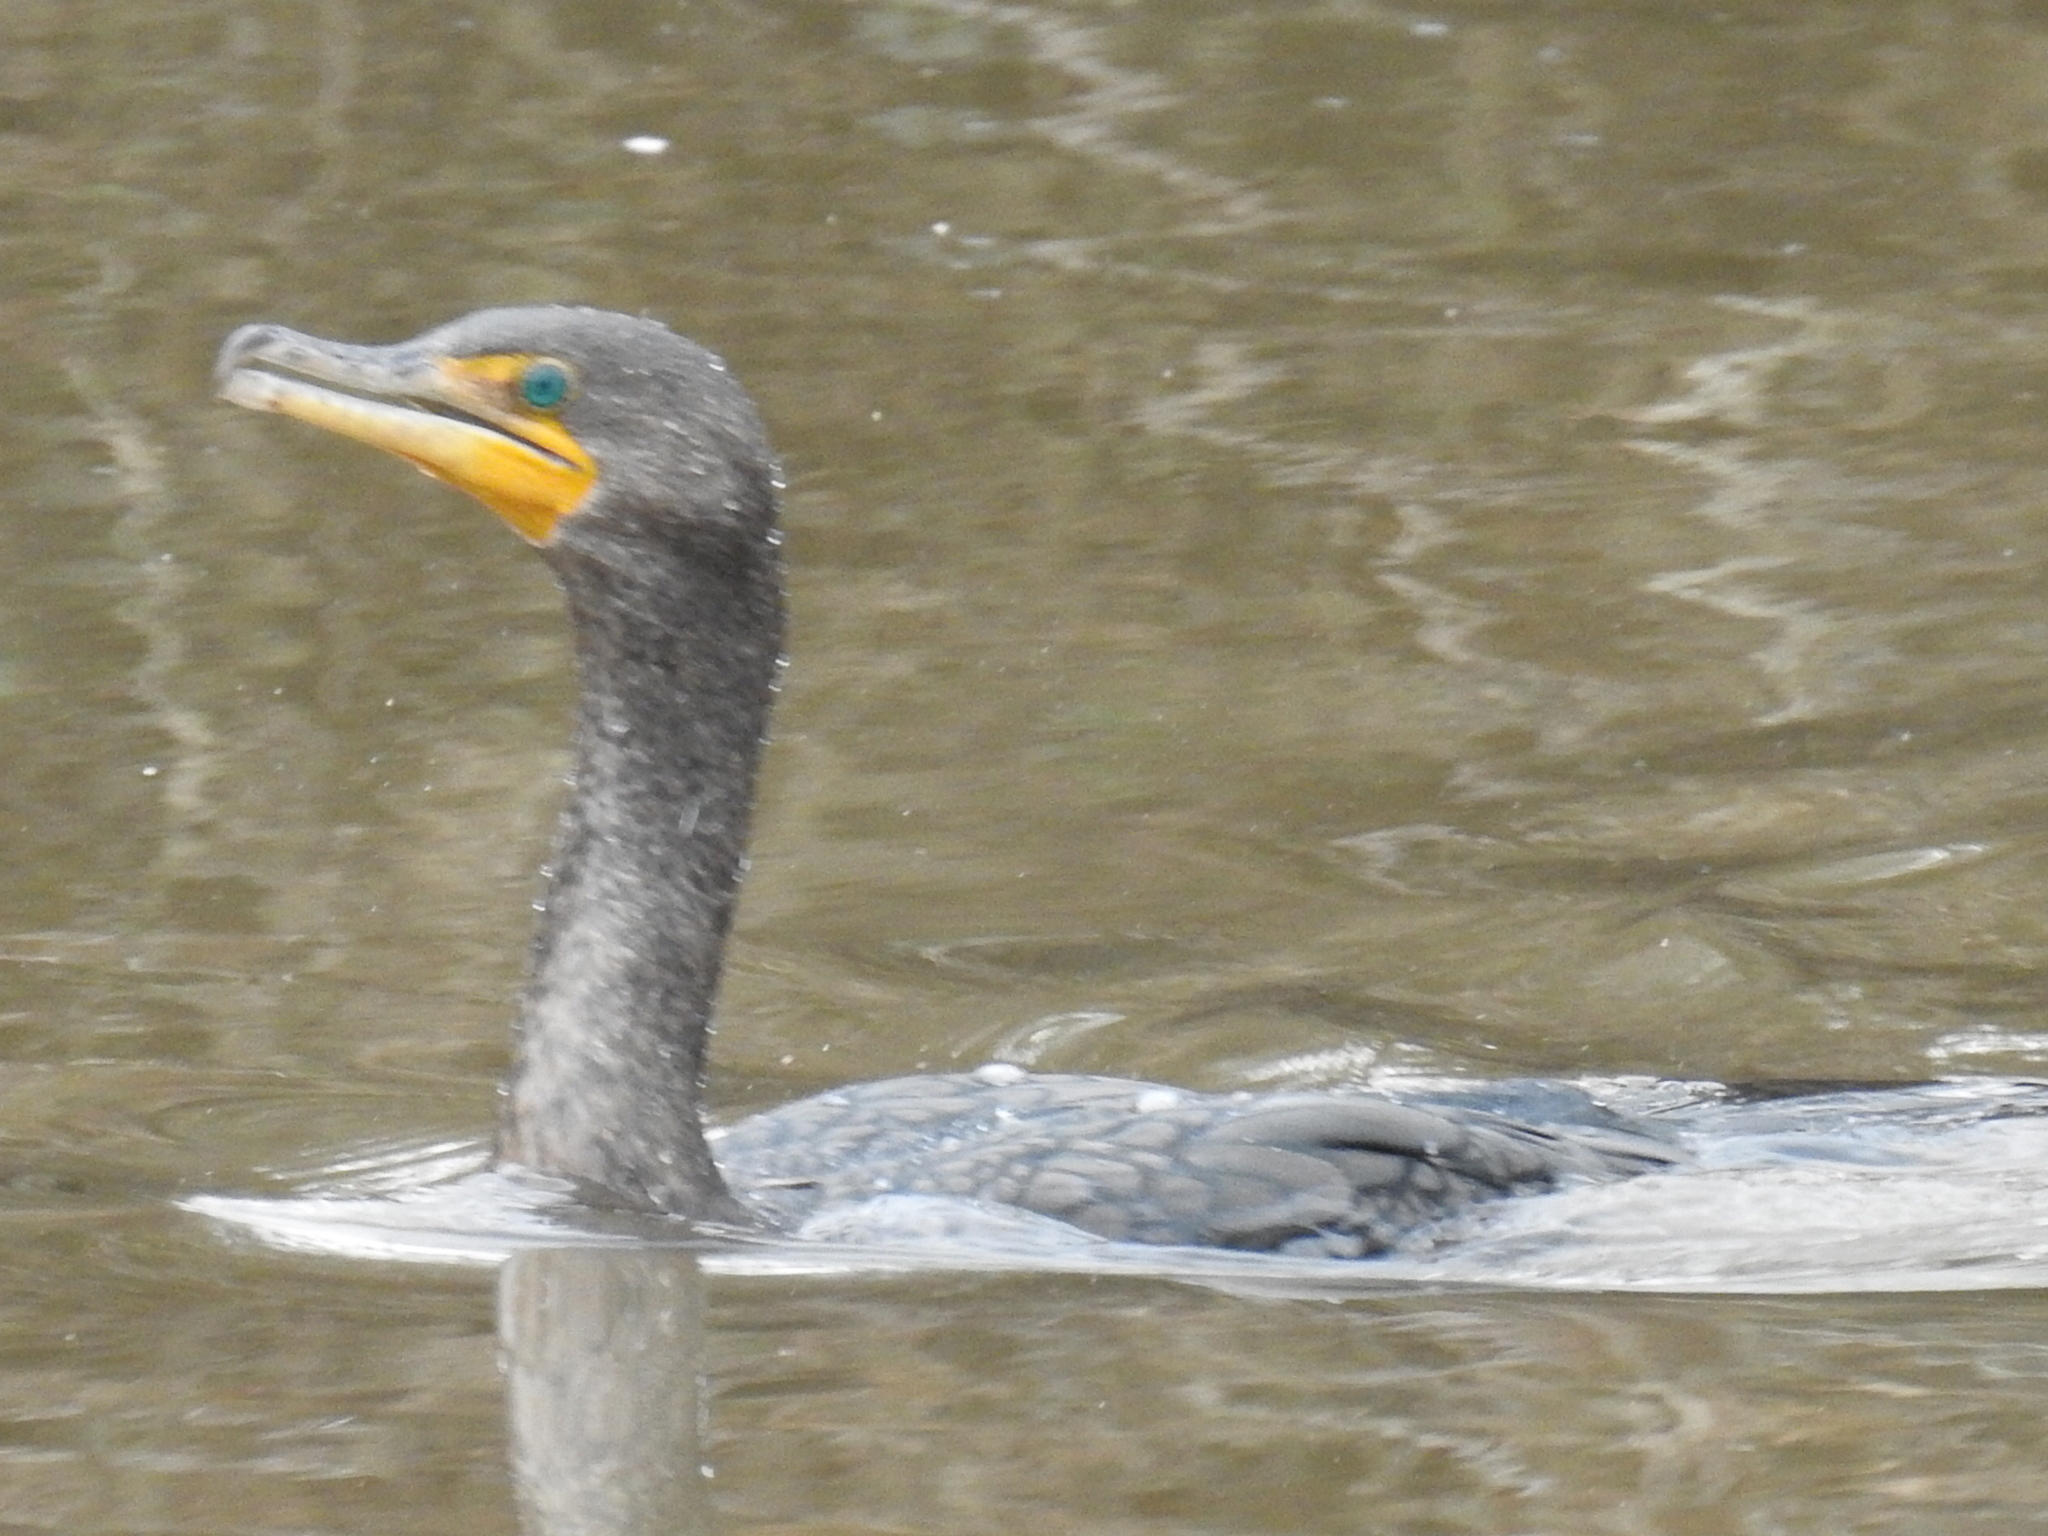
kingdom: Animalia
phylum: Chordata
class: Aves
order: Suliformes
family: Phalacrocoracidae
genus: Phalacrocorax
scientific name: Phalacrocorax auritus
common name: Double-crested cormorant
